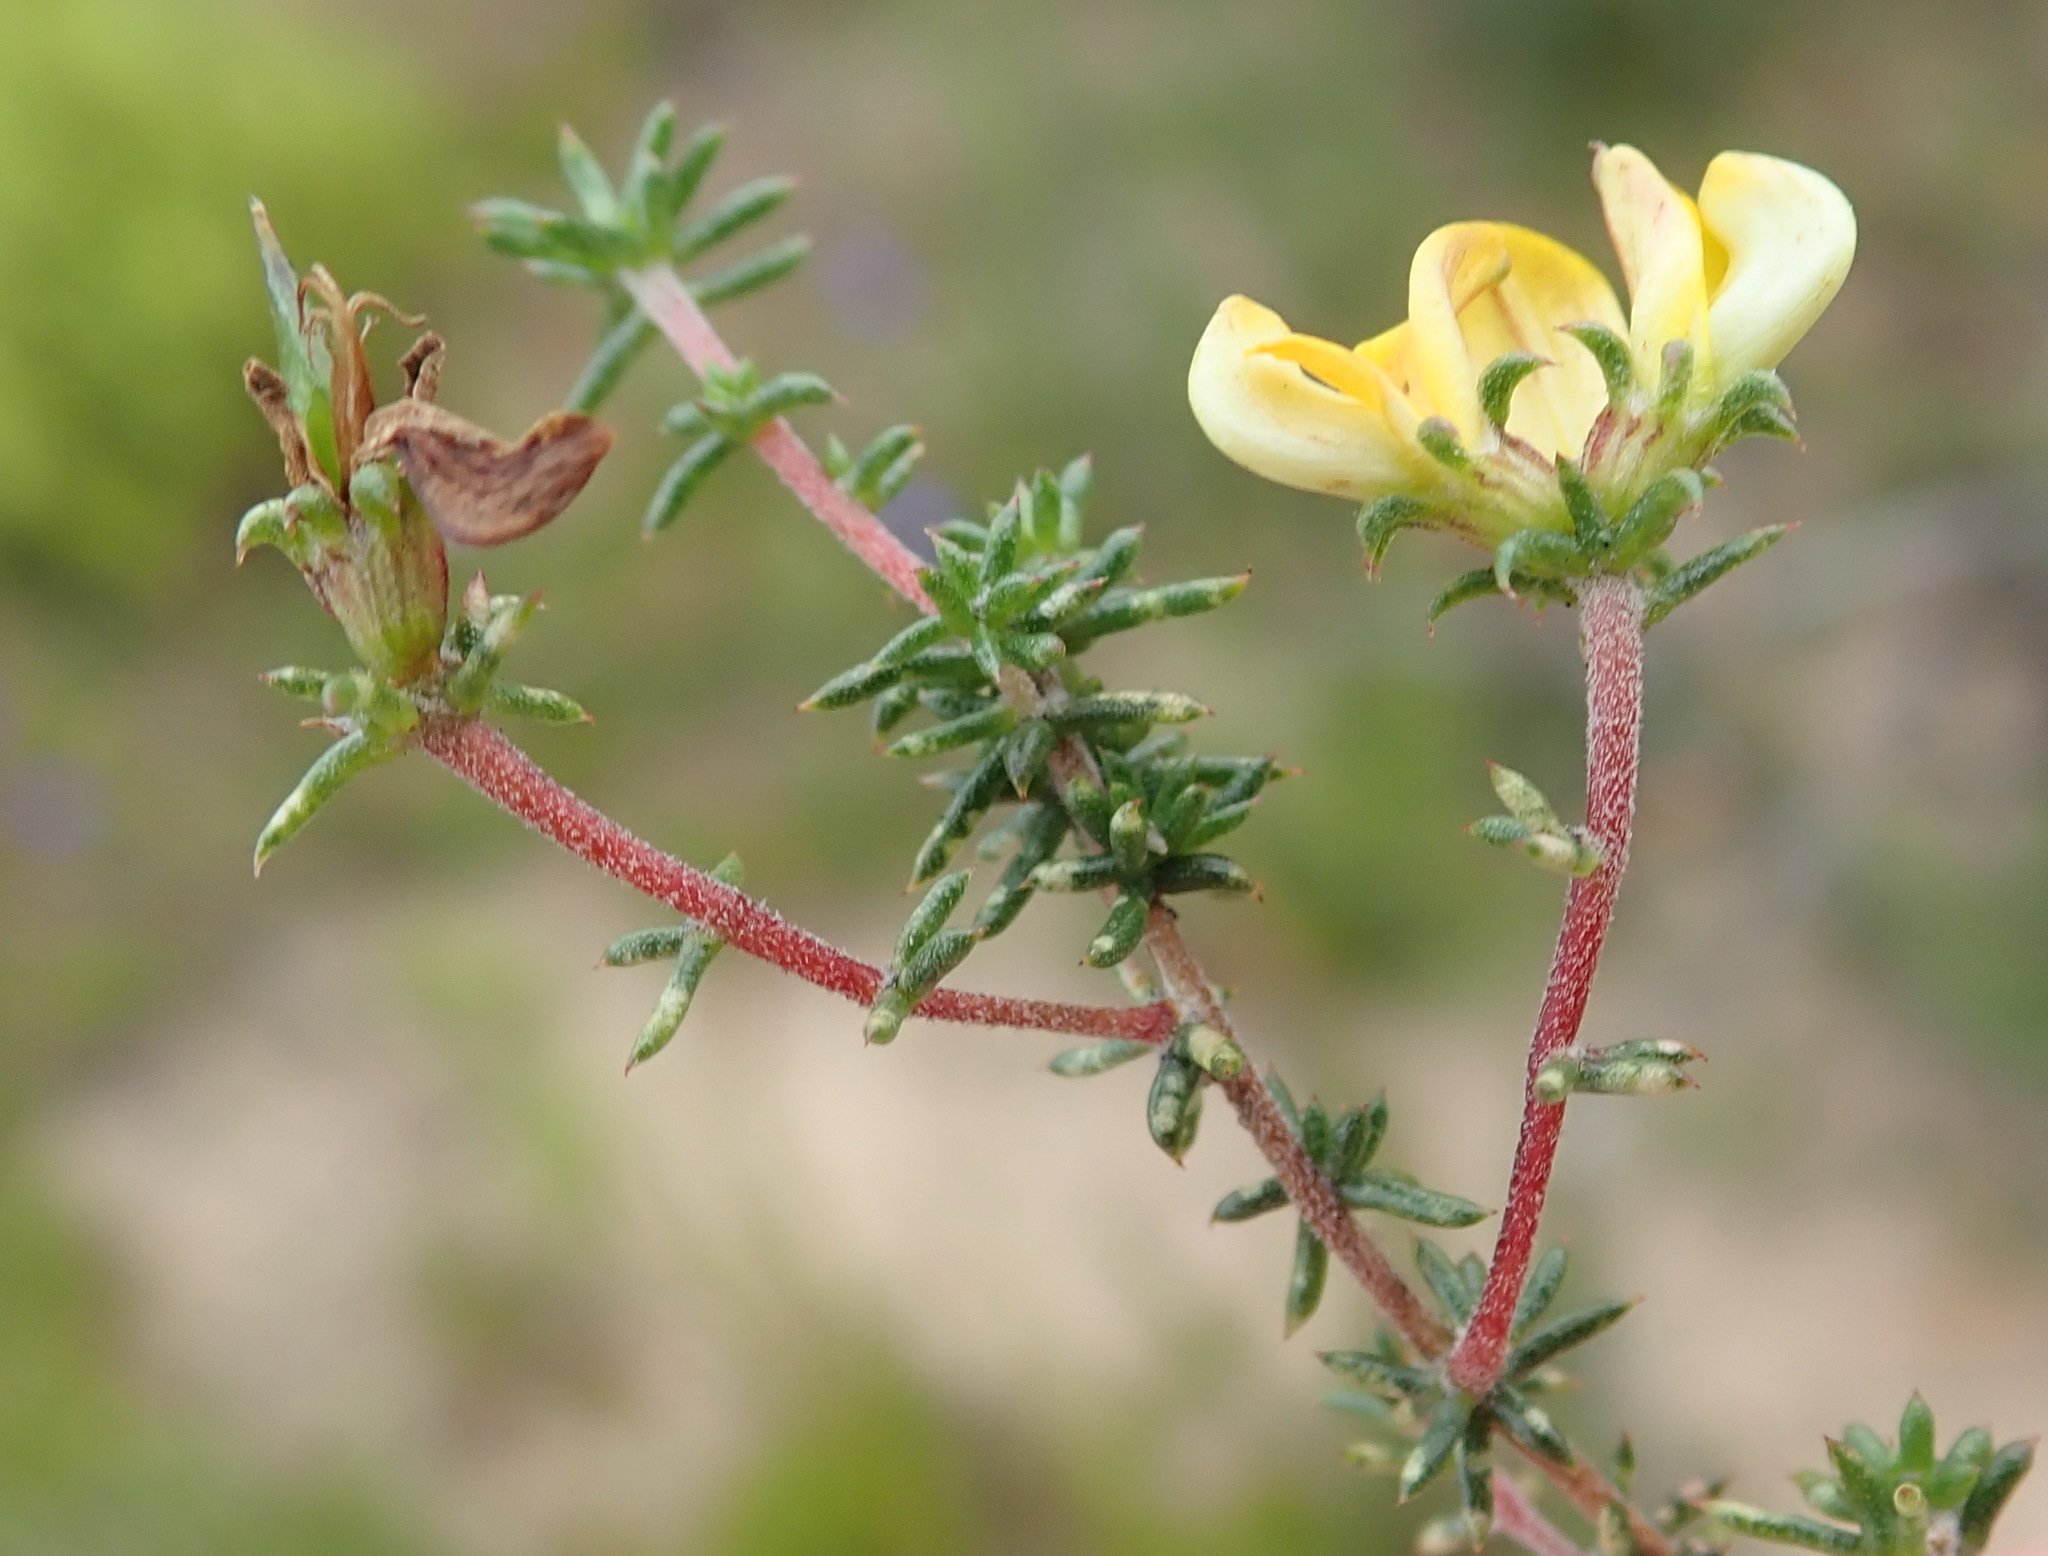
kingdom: Plantae
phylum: Tracheophyta
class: Magnoliopsida
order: Fabales
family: Fabaceae
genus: Aspalathus
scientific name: Aspalathus crassisepala
